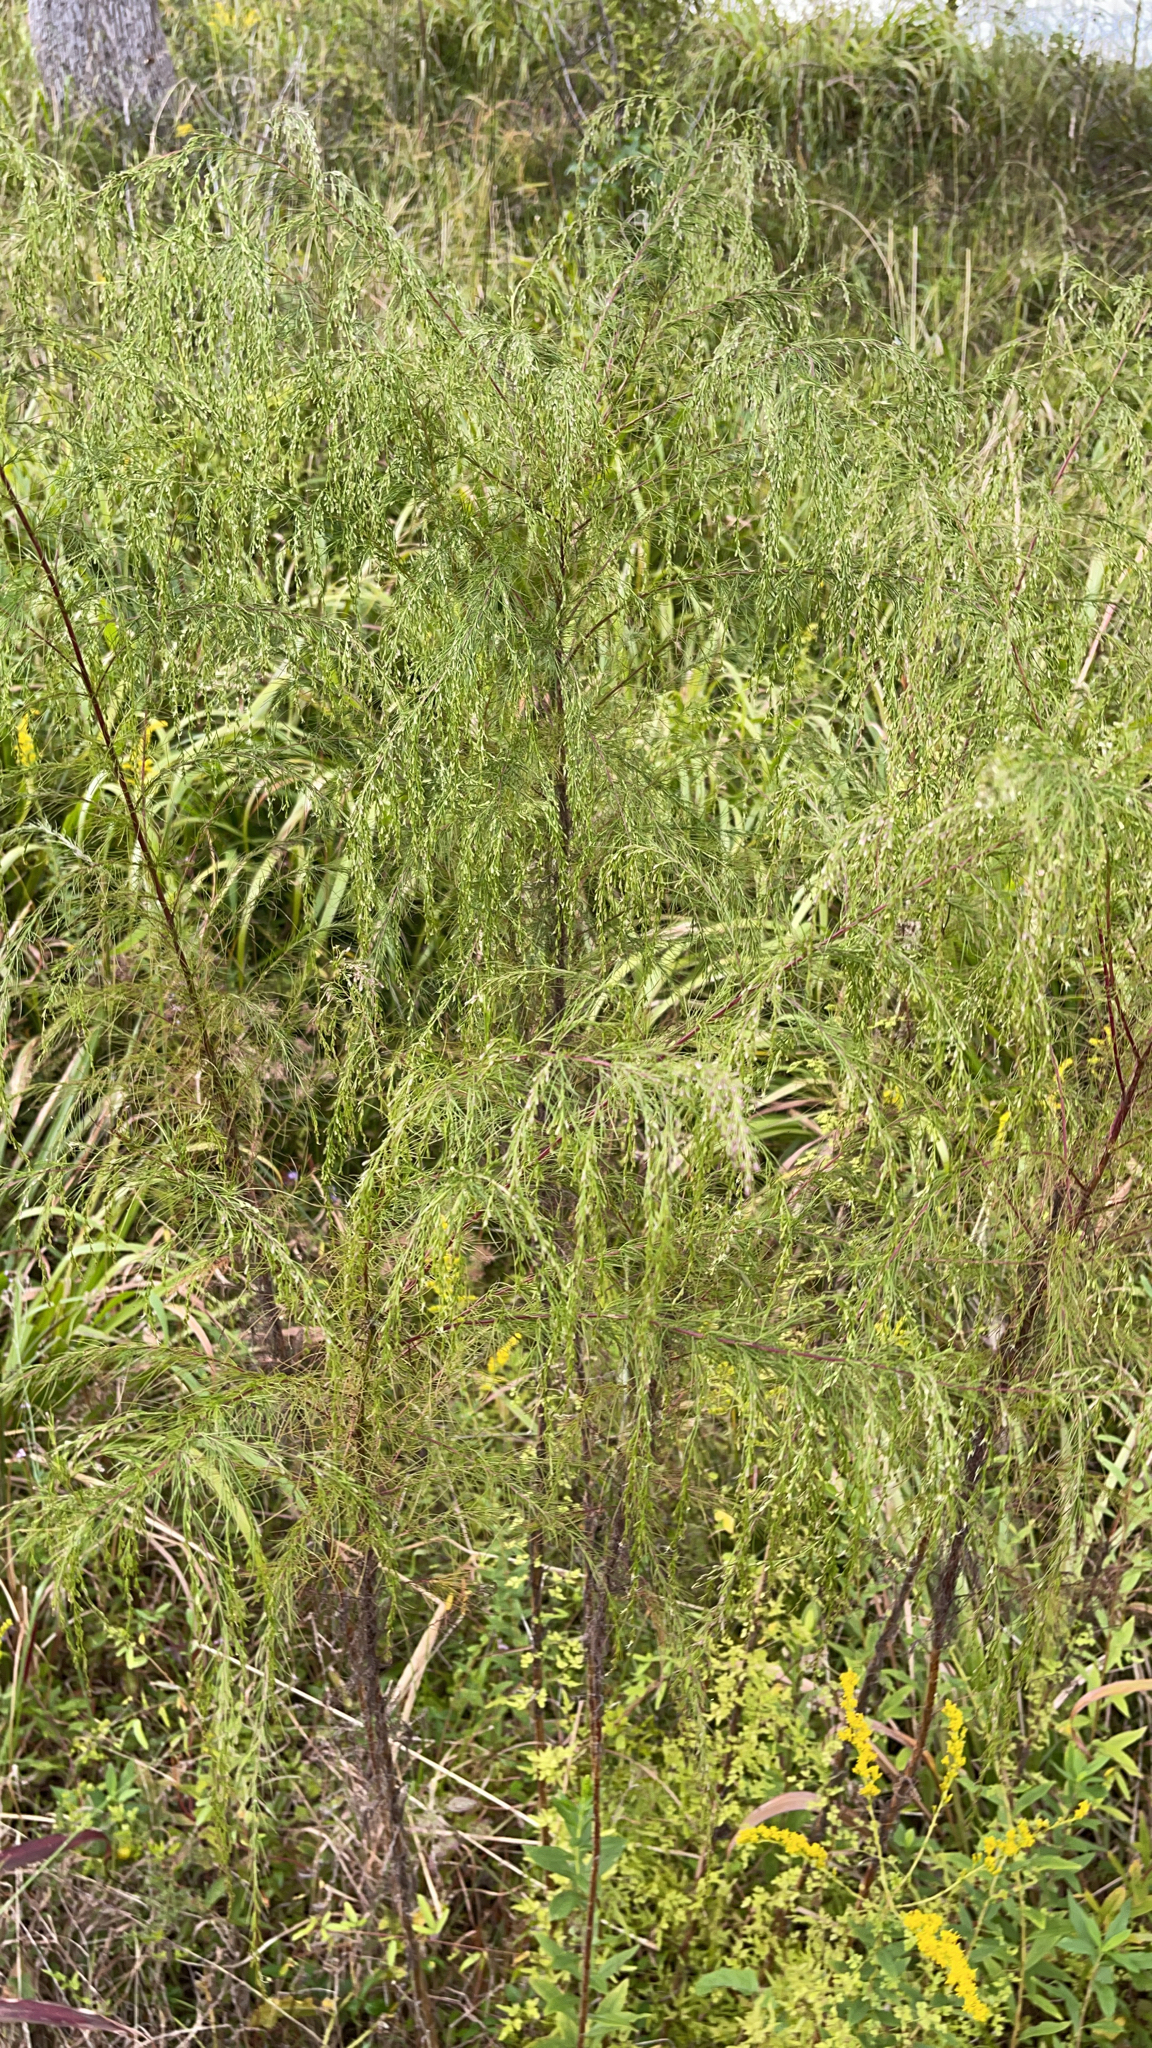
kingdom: Plantae
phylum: Tracheophyta
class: Magnoliopsida
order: Asterales
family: Asteraceae
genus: Eupatorium
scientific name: Eupatorium capillifolium
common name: Dog-fennel
